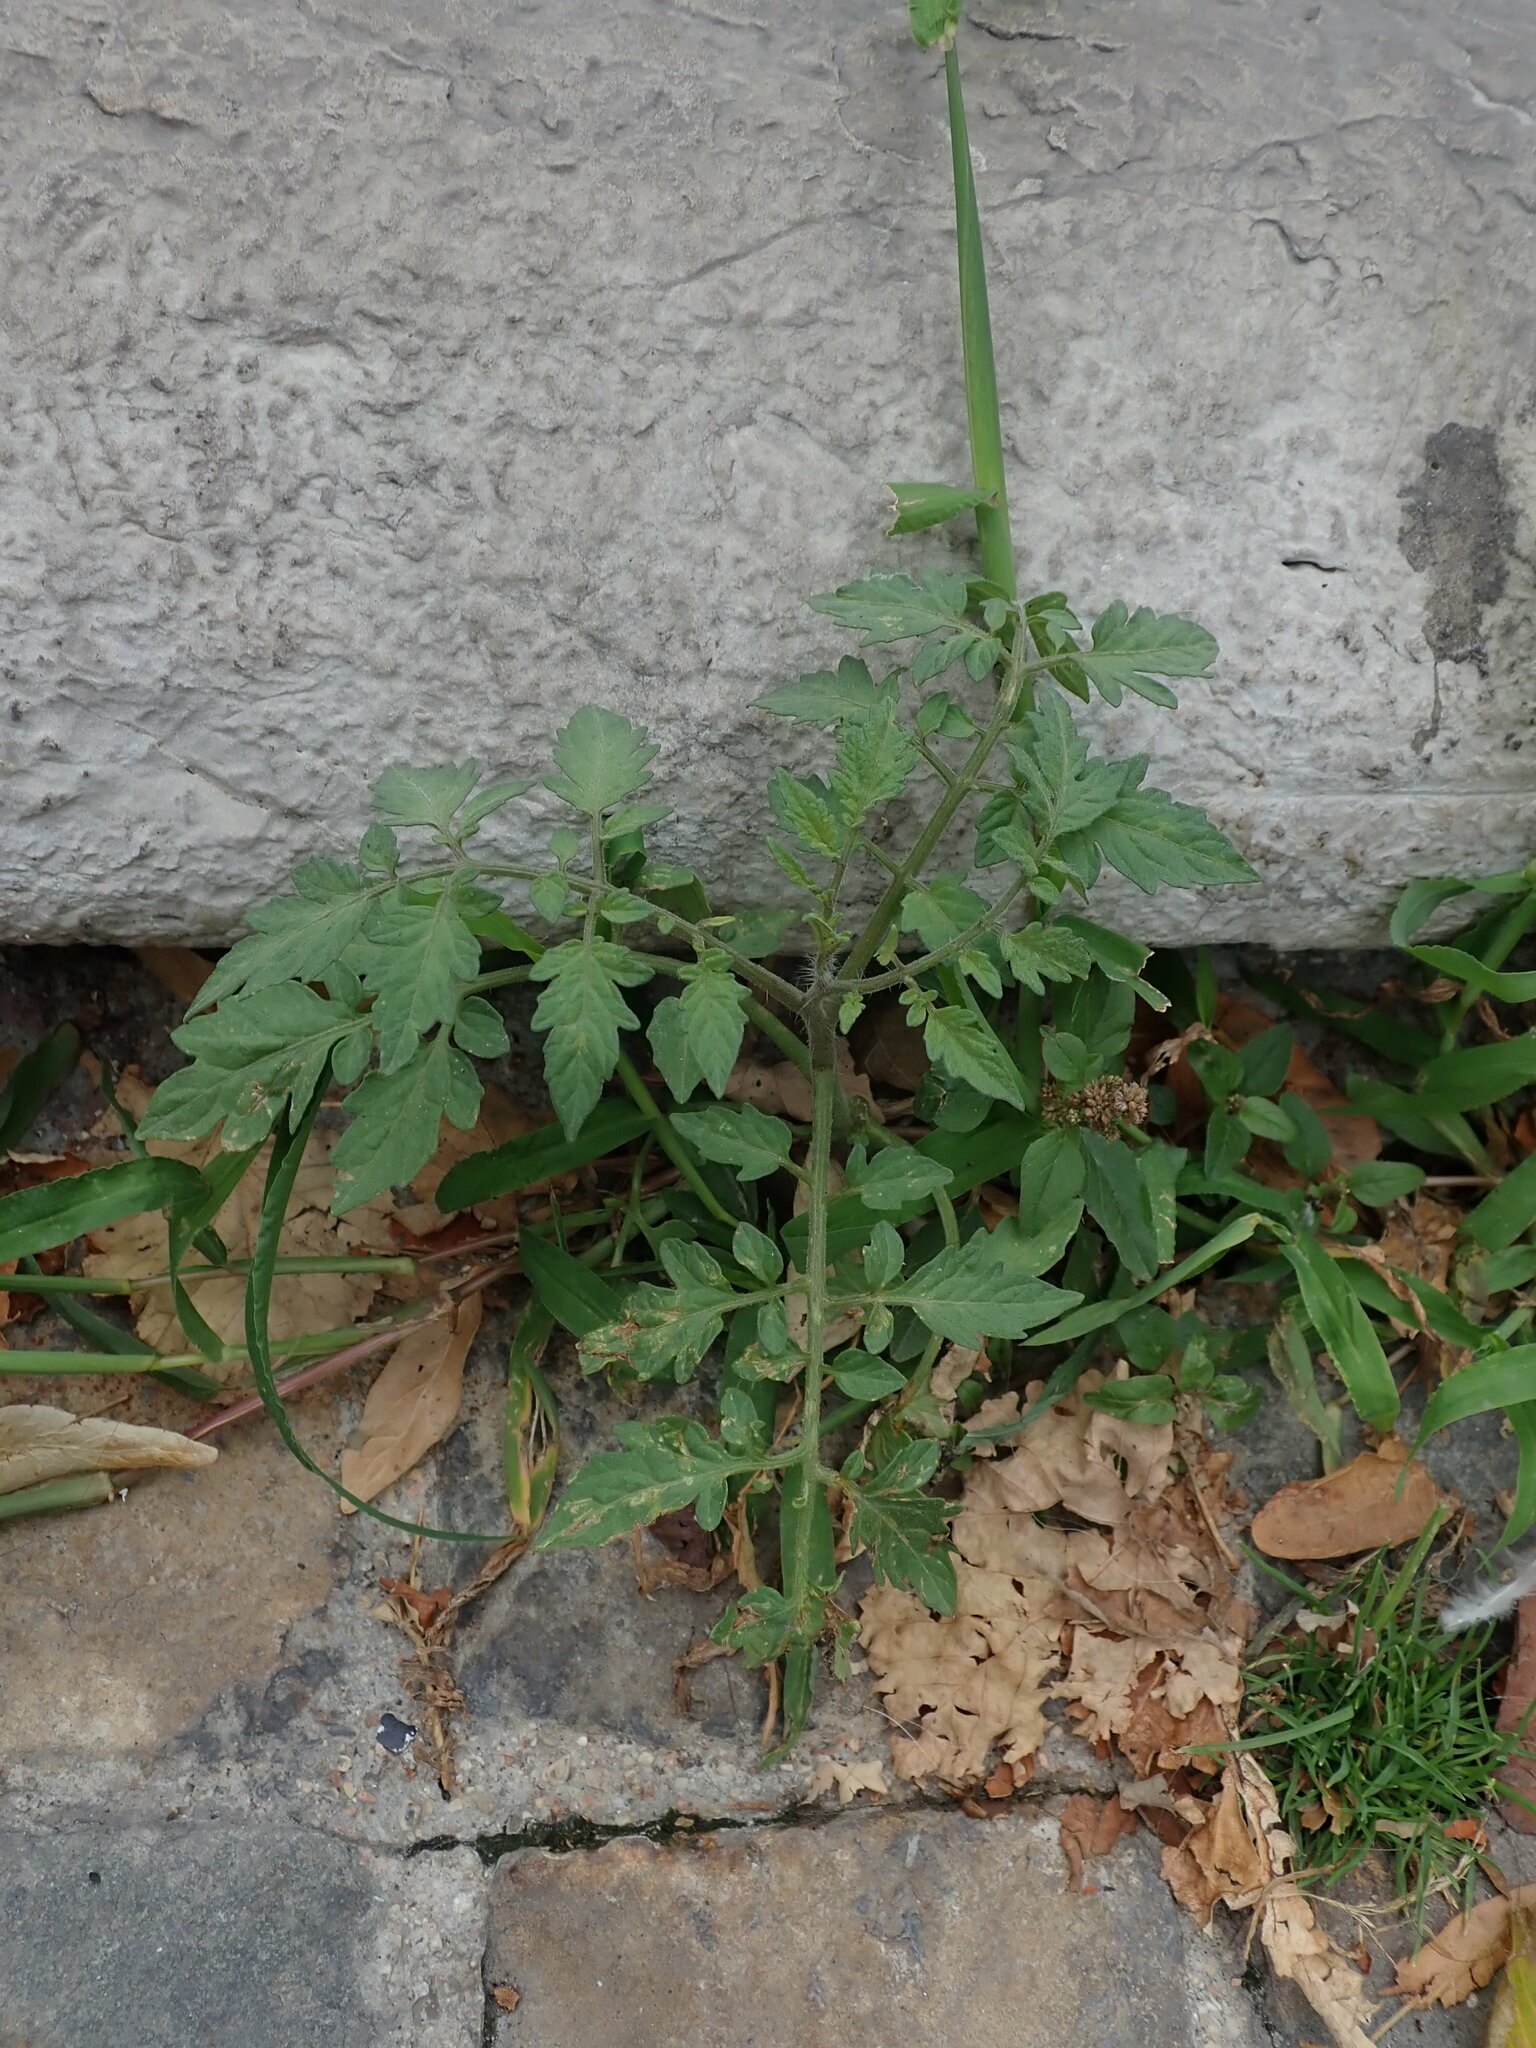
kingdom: Plantae
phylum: Tracheophyta
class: Magnoliopsida
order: Solanales
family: Solanaceae
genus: Solanum
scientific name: Solanum lycopersicum
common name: Garden tomato
